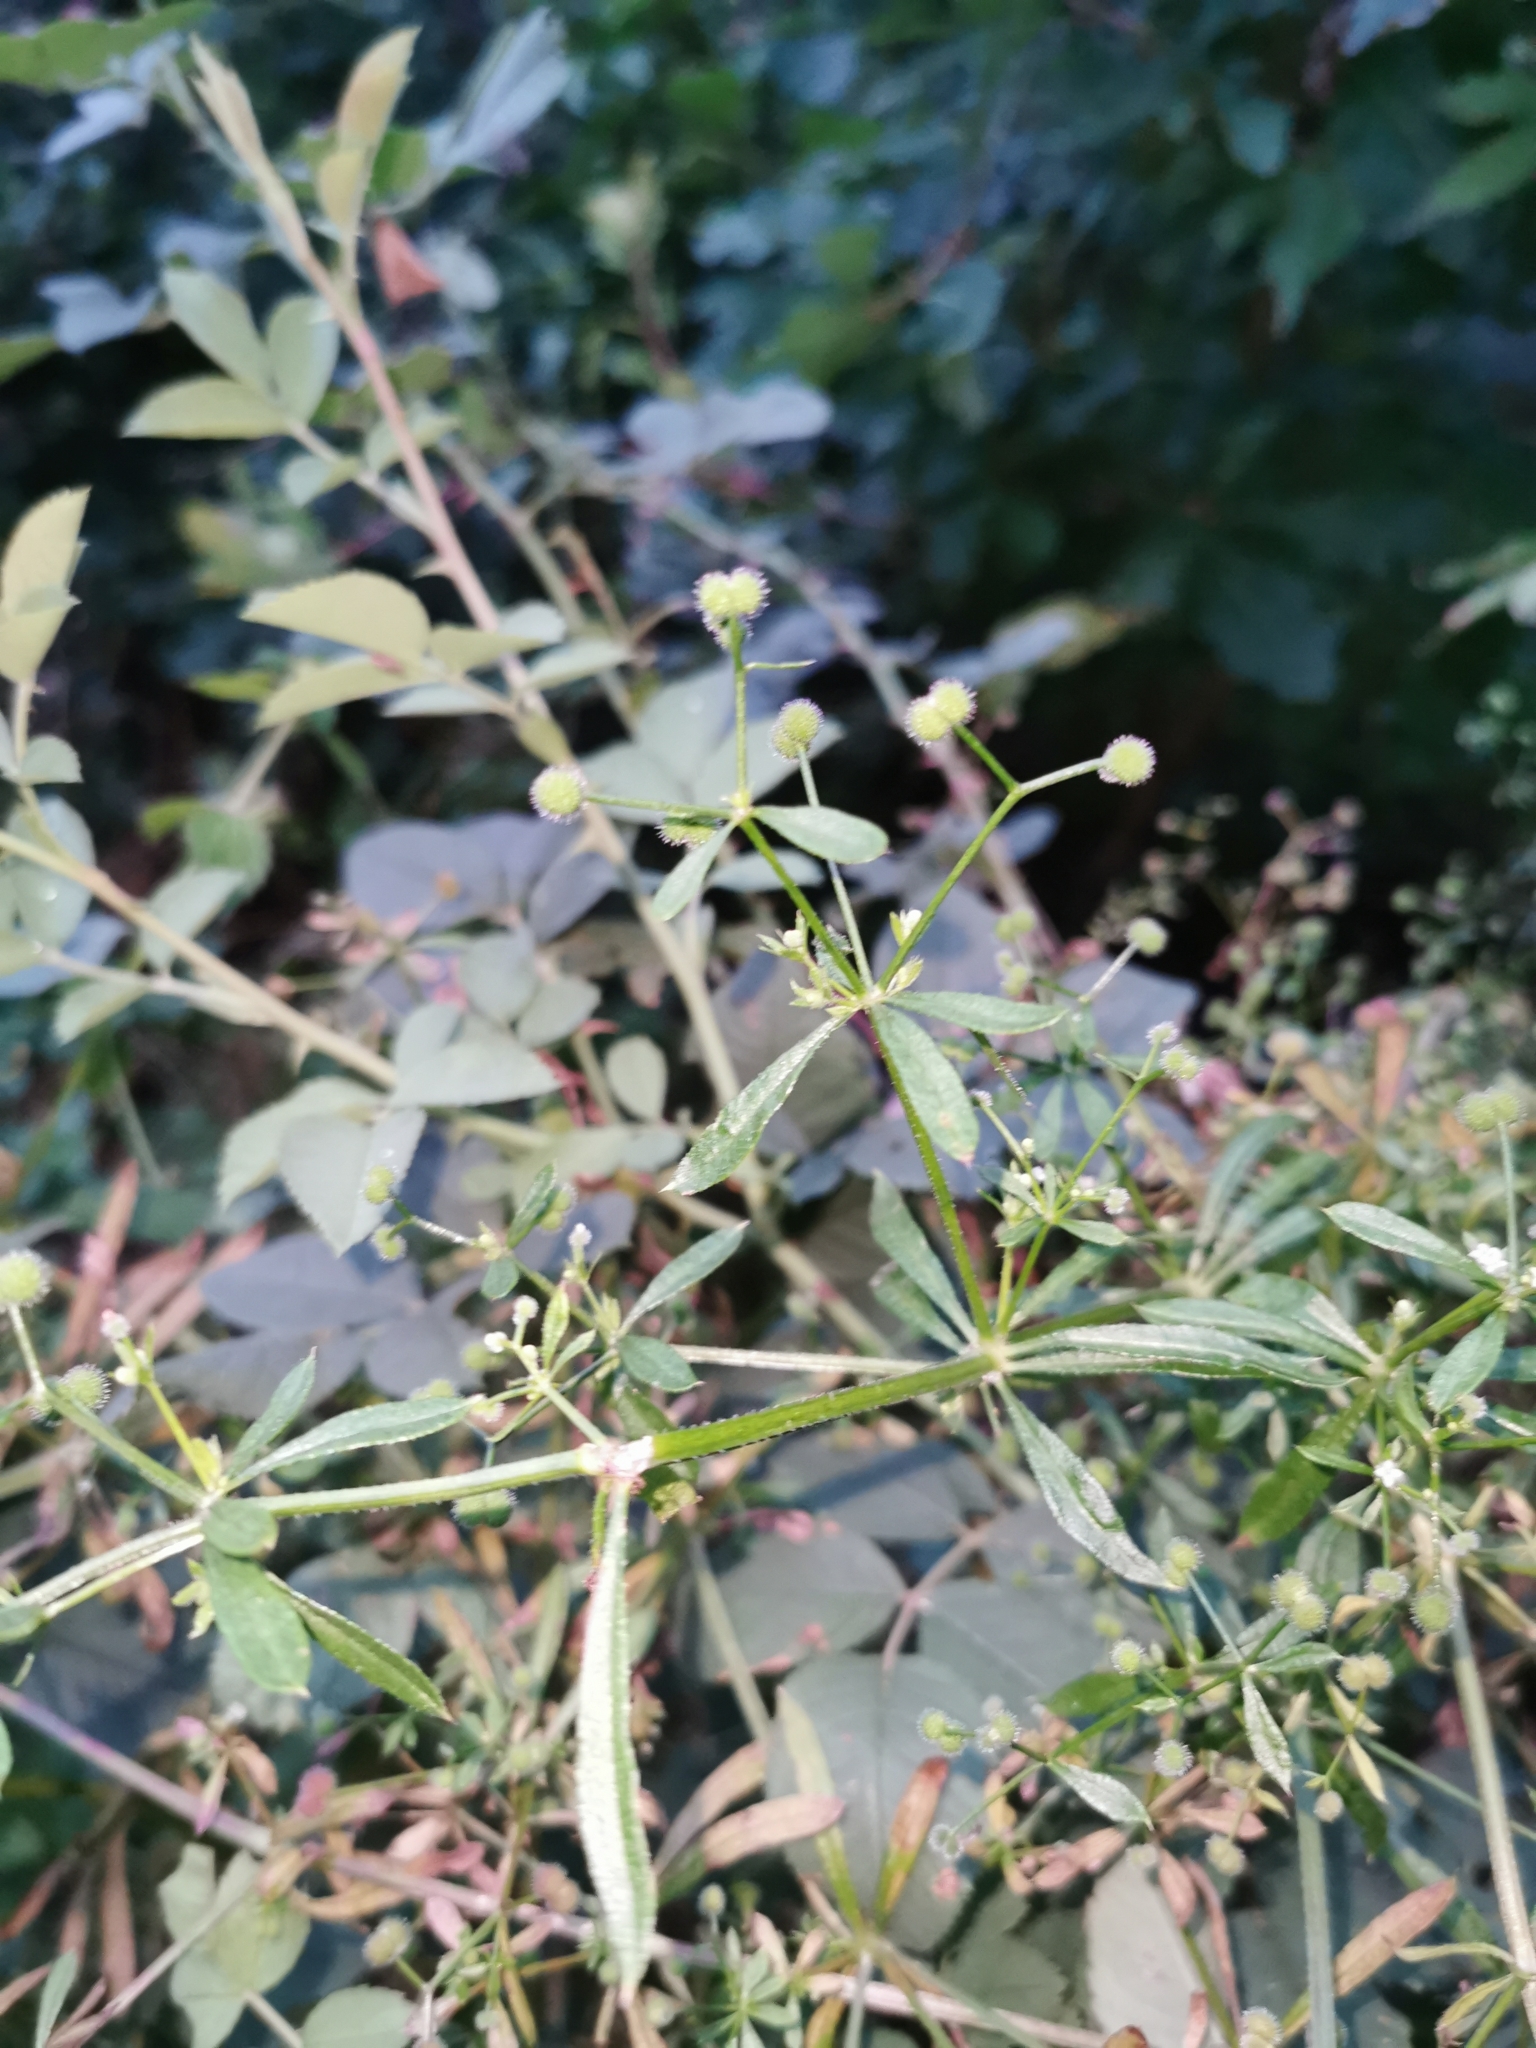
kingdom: Plantae
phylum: Tracheophyta
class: Magnoliopsida
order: Gentianales
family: Rubiaceae
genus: Galium
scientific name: Galium aparine
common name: Cleavers
